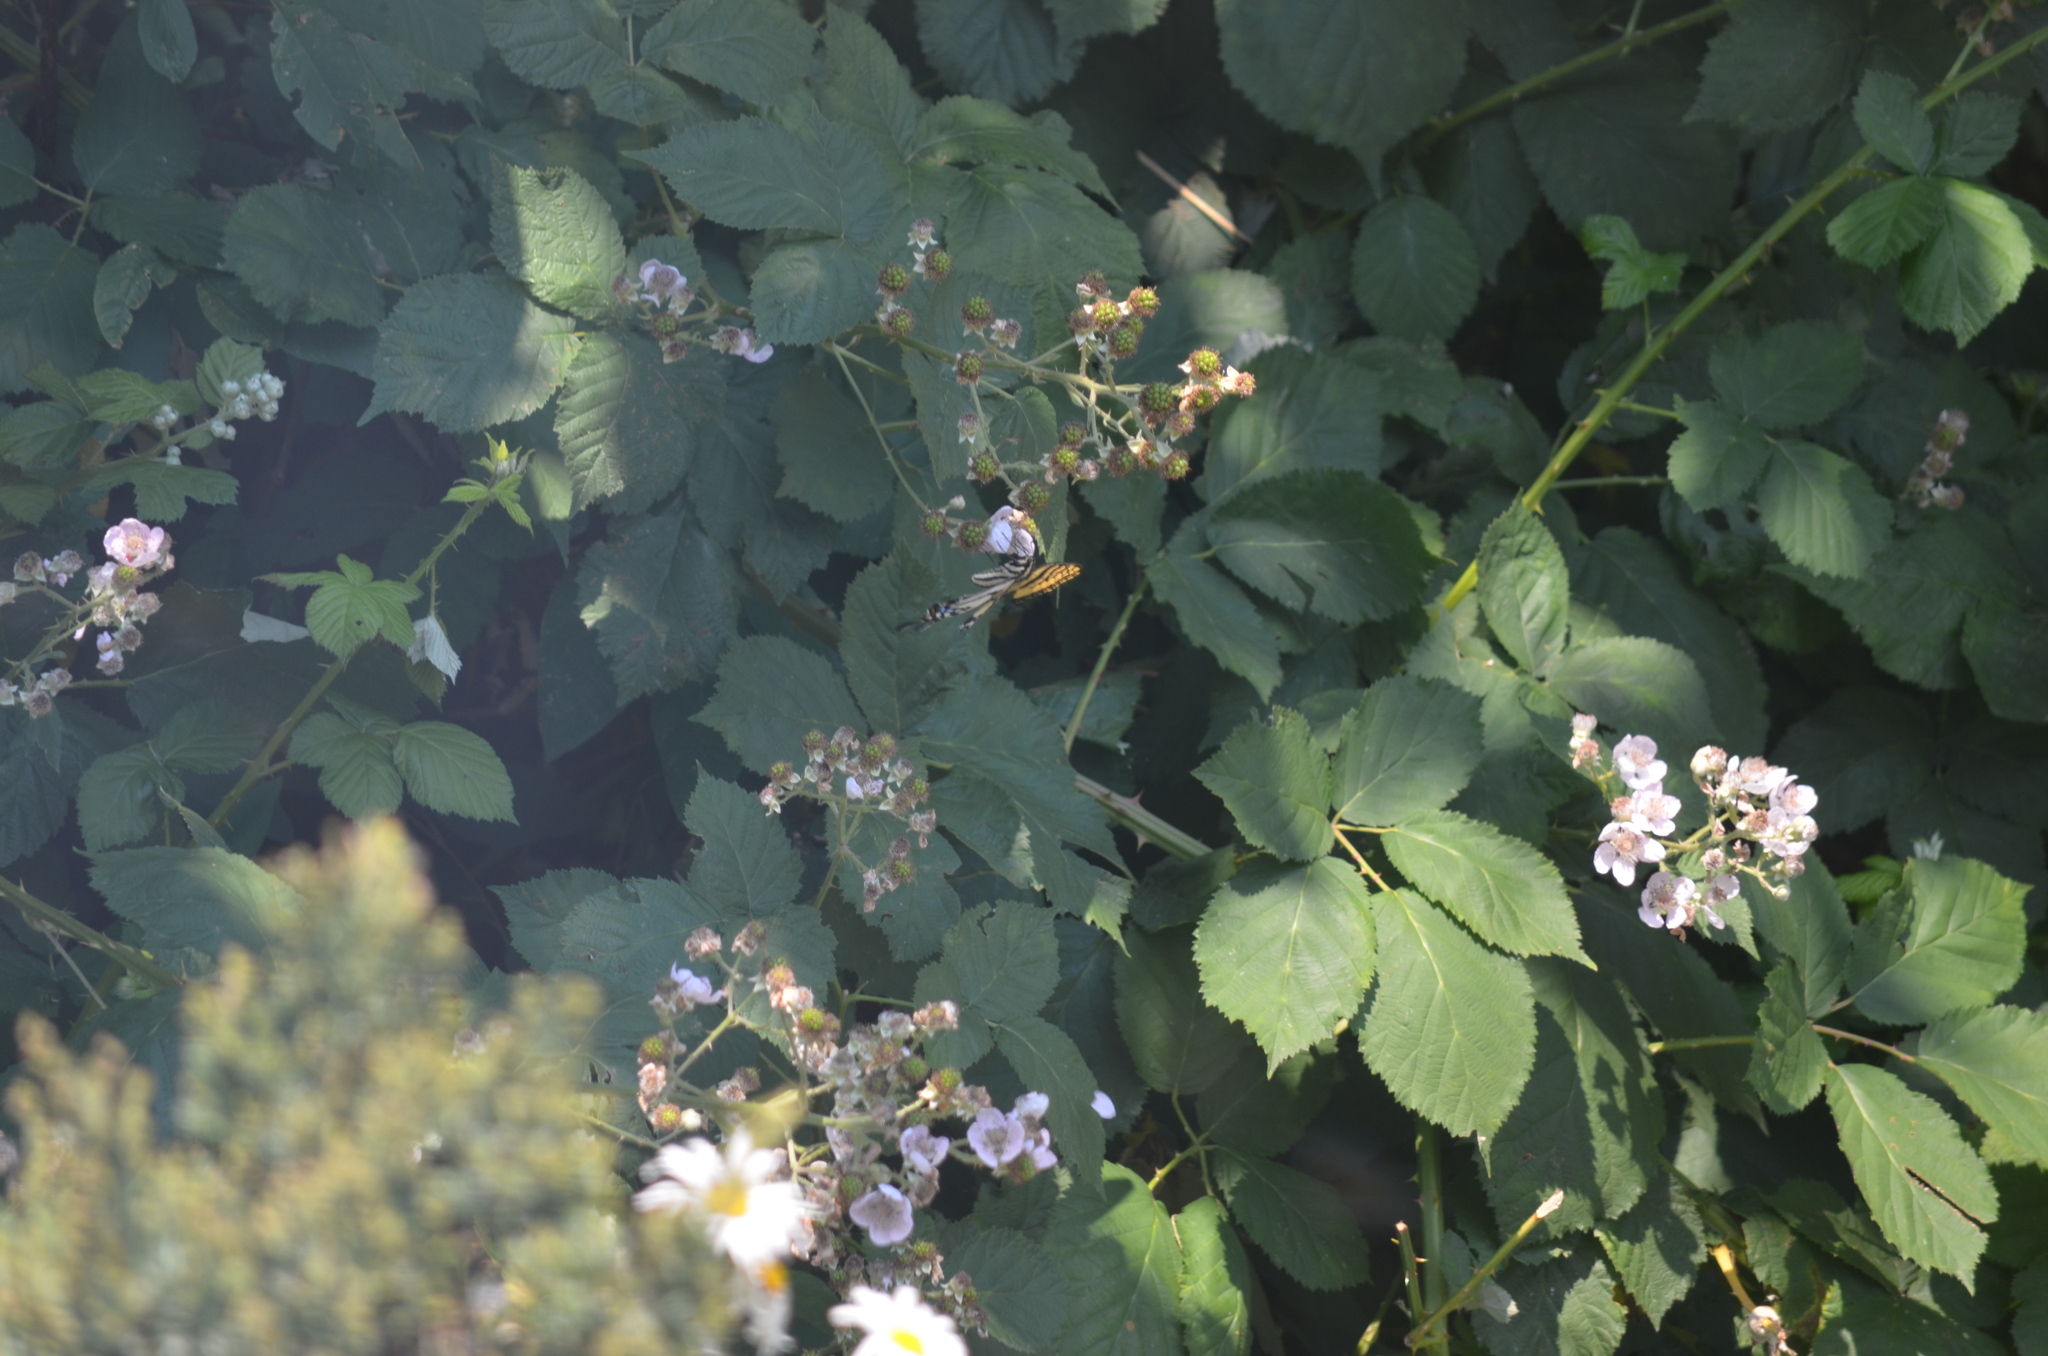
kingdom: Animalia
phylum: Arthropoda
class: Insecta
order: Lepidoptera
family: Papilionidae
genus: Papilio
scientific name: Papilio rutulus
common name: Western tiger swallowtail
